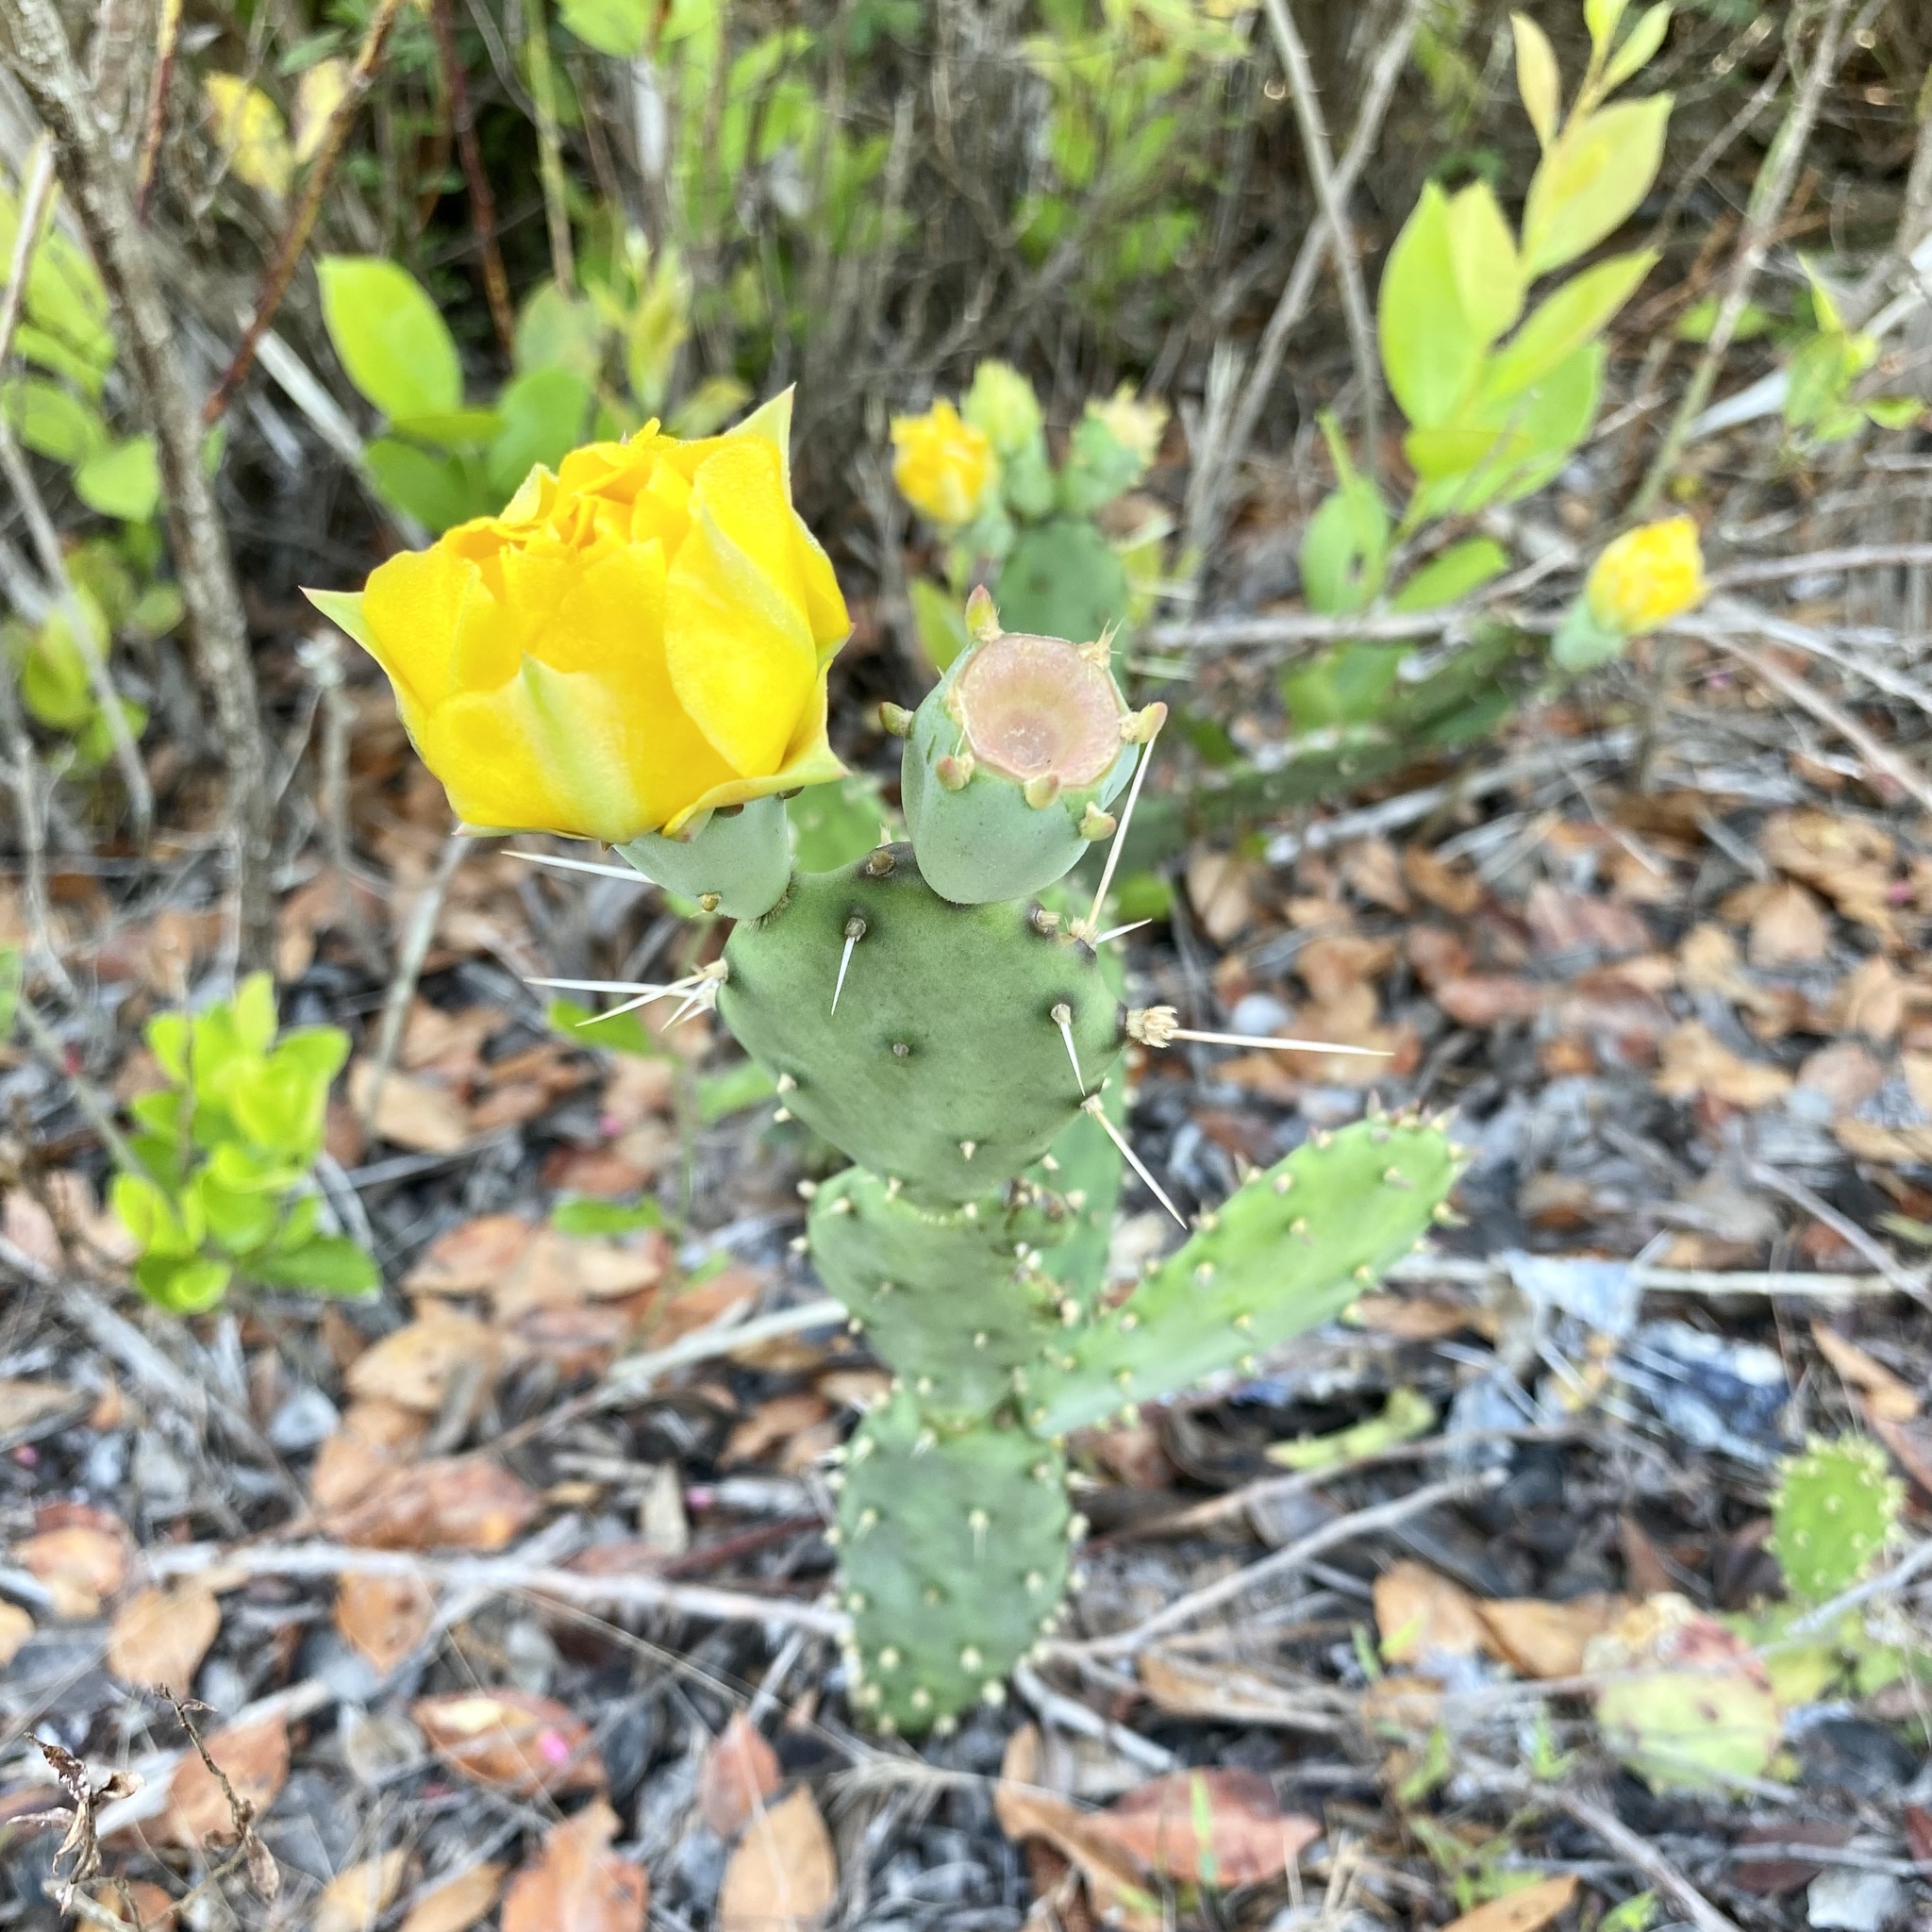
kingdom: Plantae
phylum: Tracheophyta
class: Magnoliopsida
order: Caryophyllales
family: Cactaceae
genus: Opuntia
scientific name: Opuntia austrina
